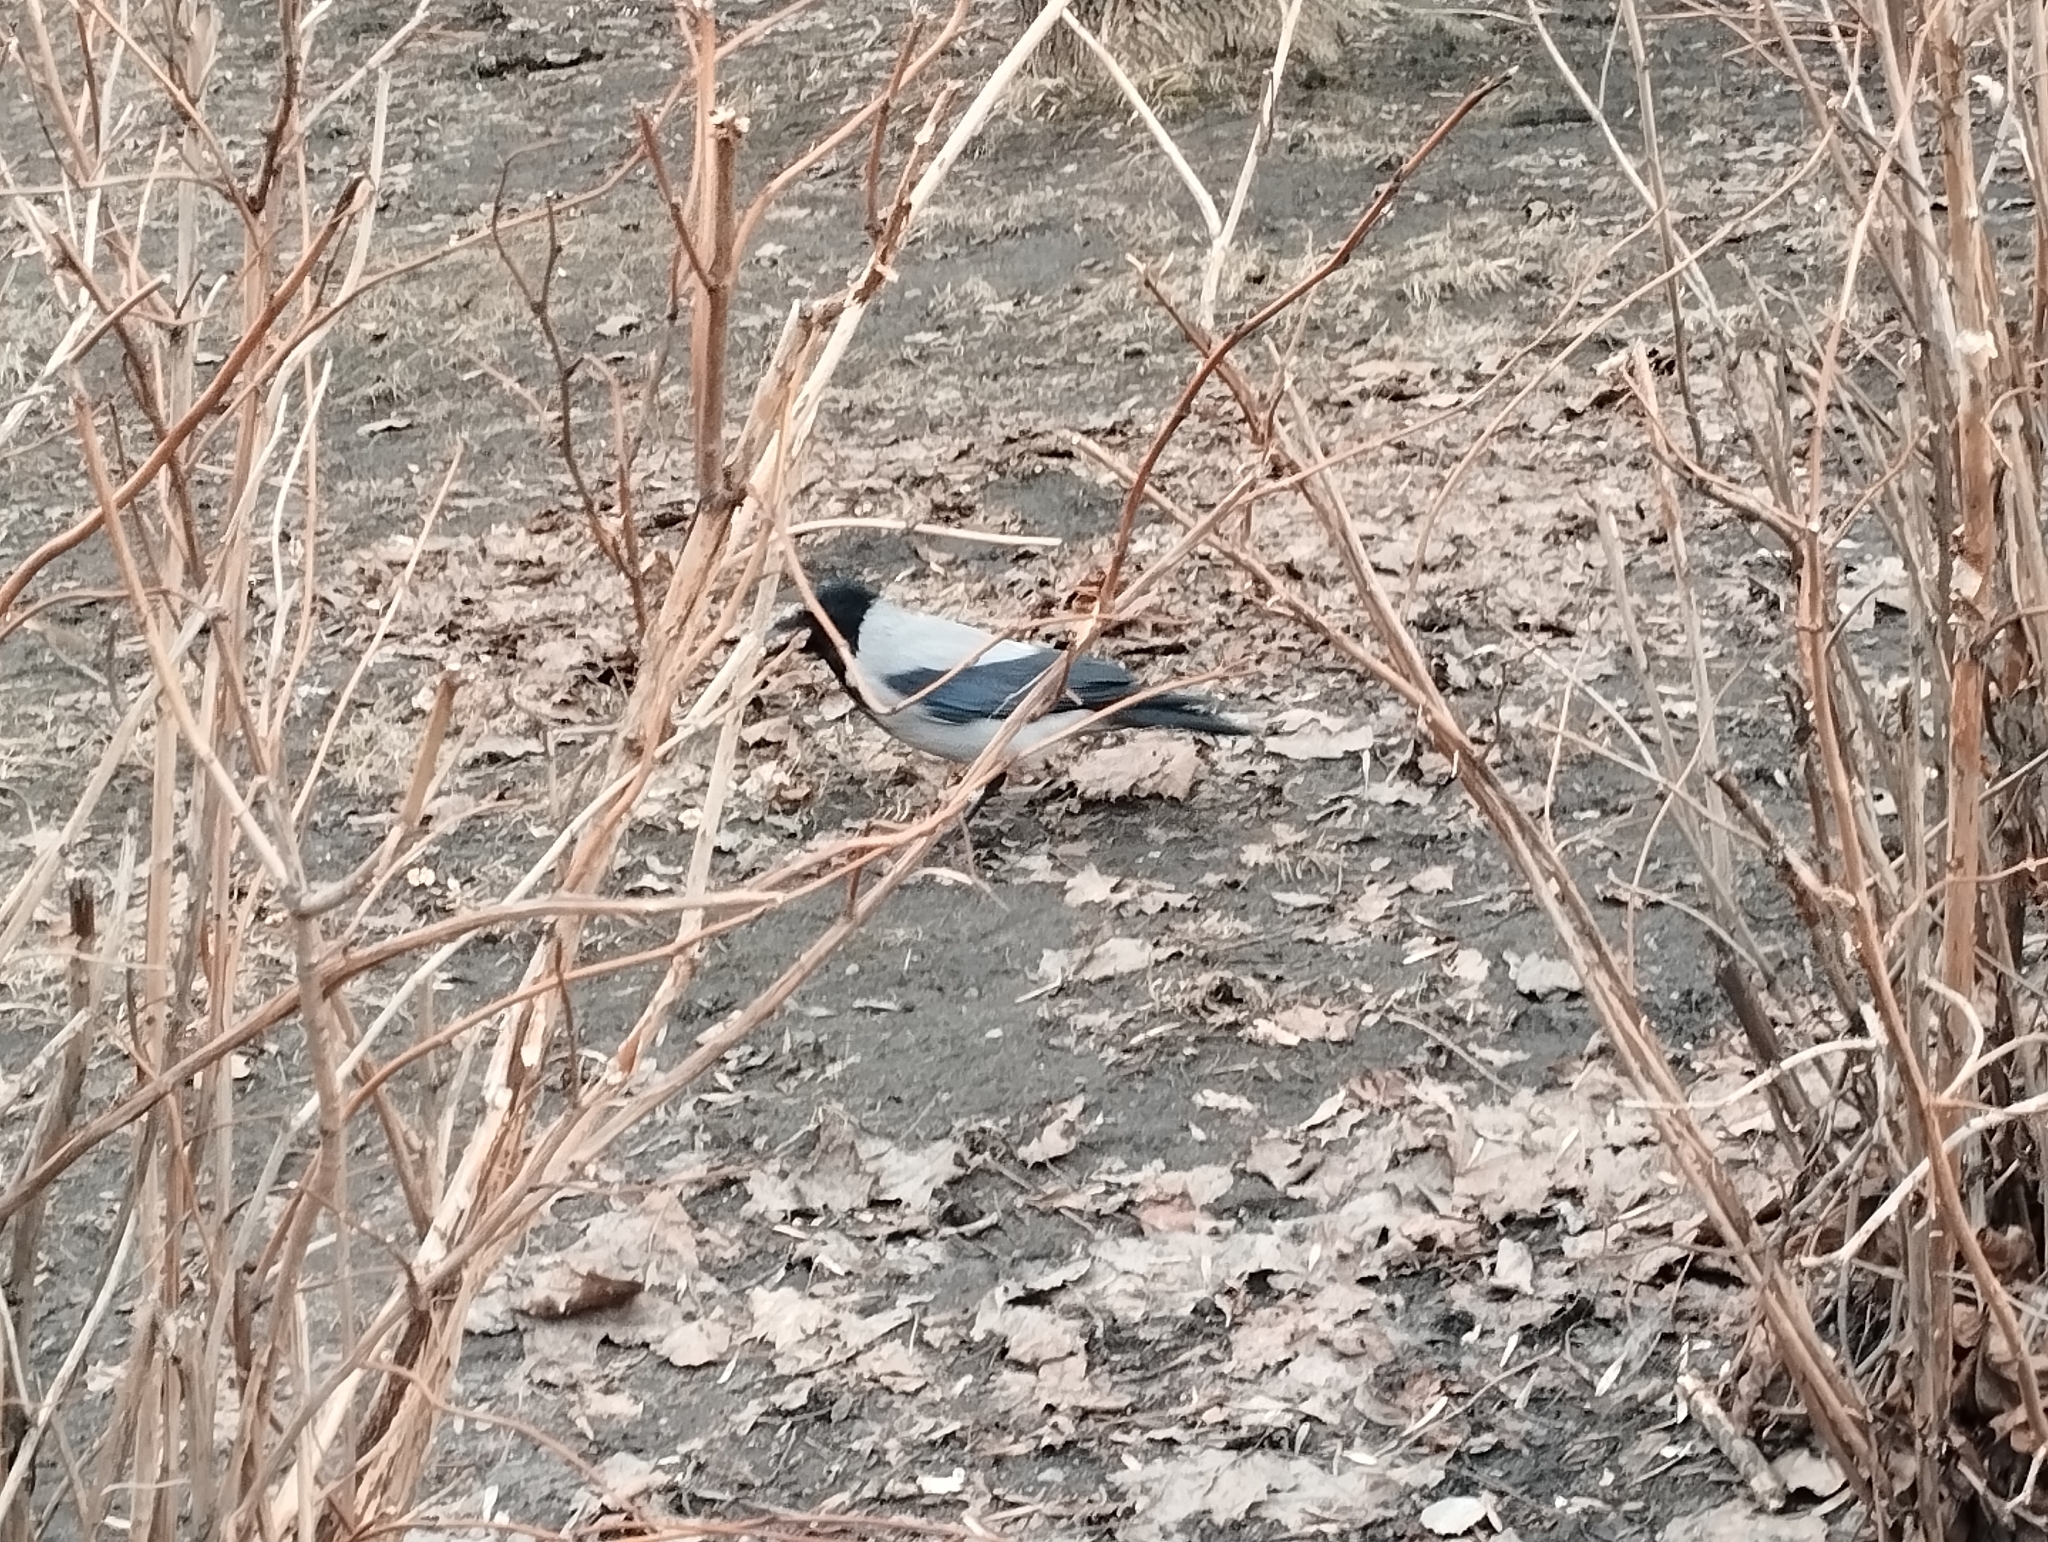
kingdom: Animalia
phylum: Chordata
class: Aves
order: Passeriformes
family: Corvidae
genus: Corvus
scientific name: Corvus cornix
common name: Hooded crow
